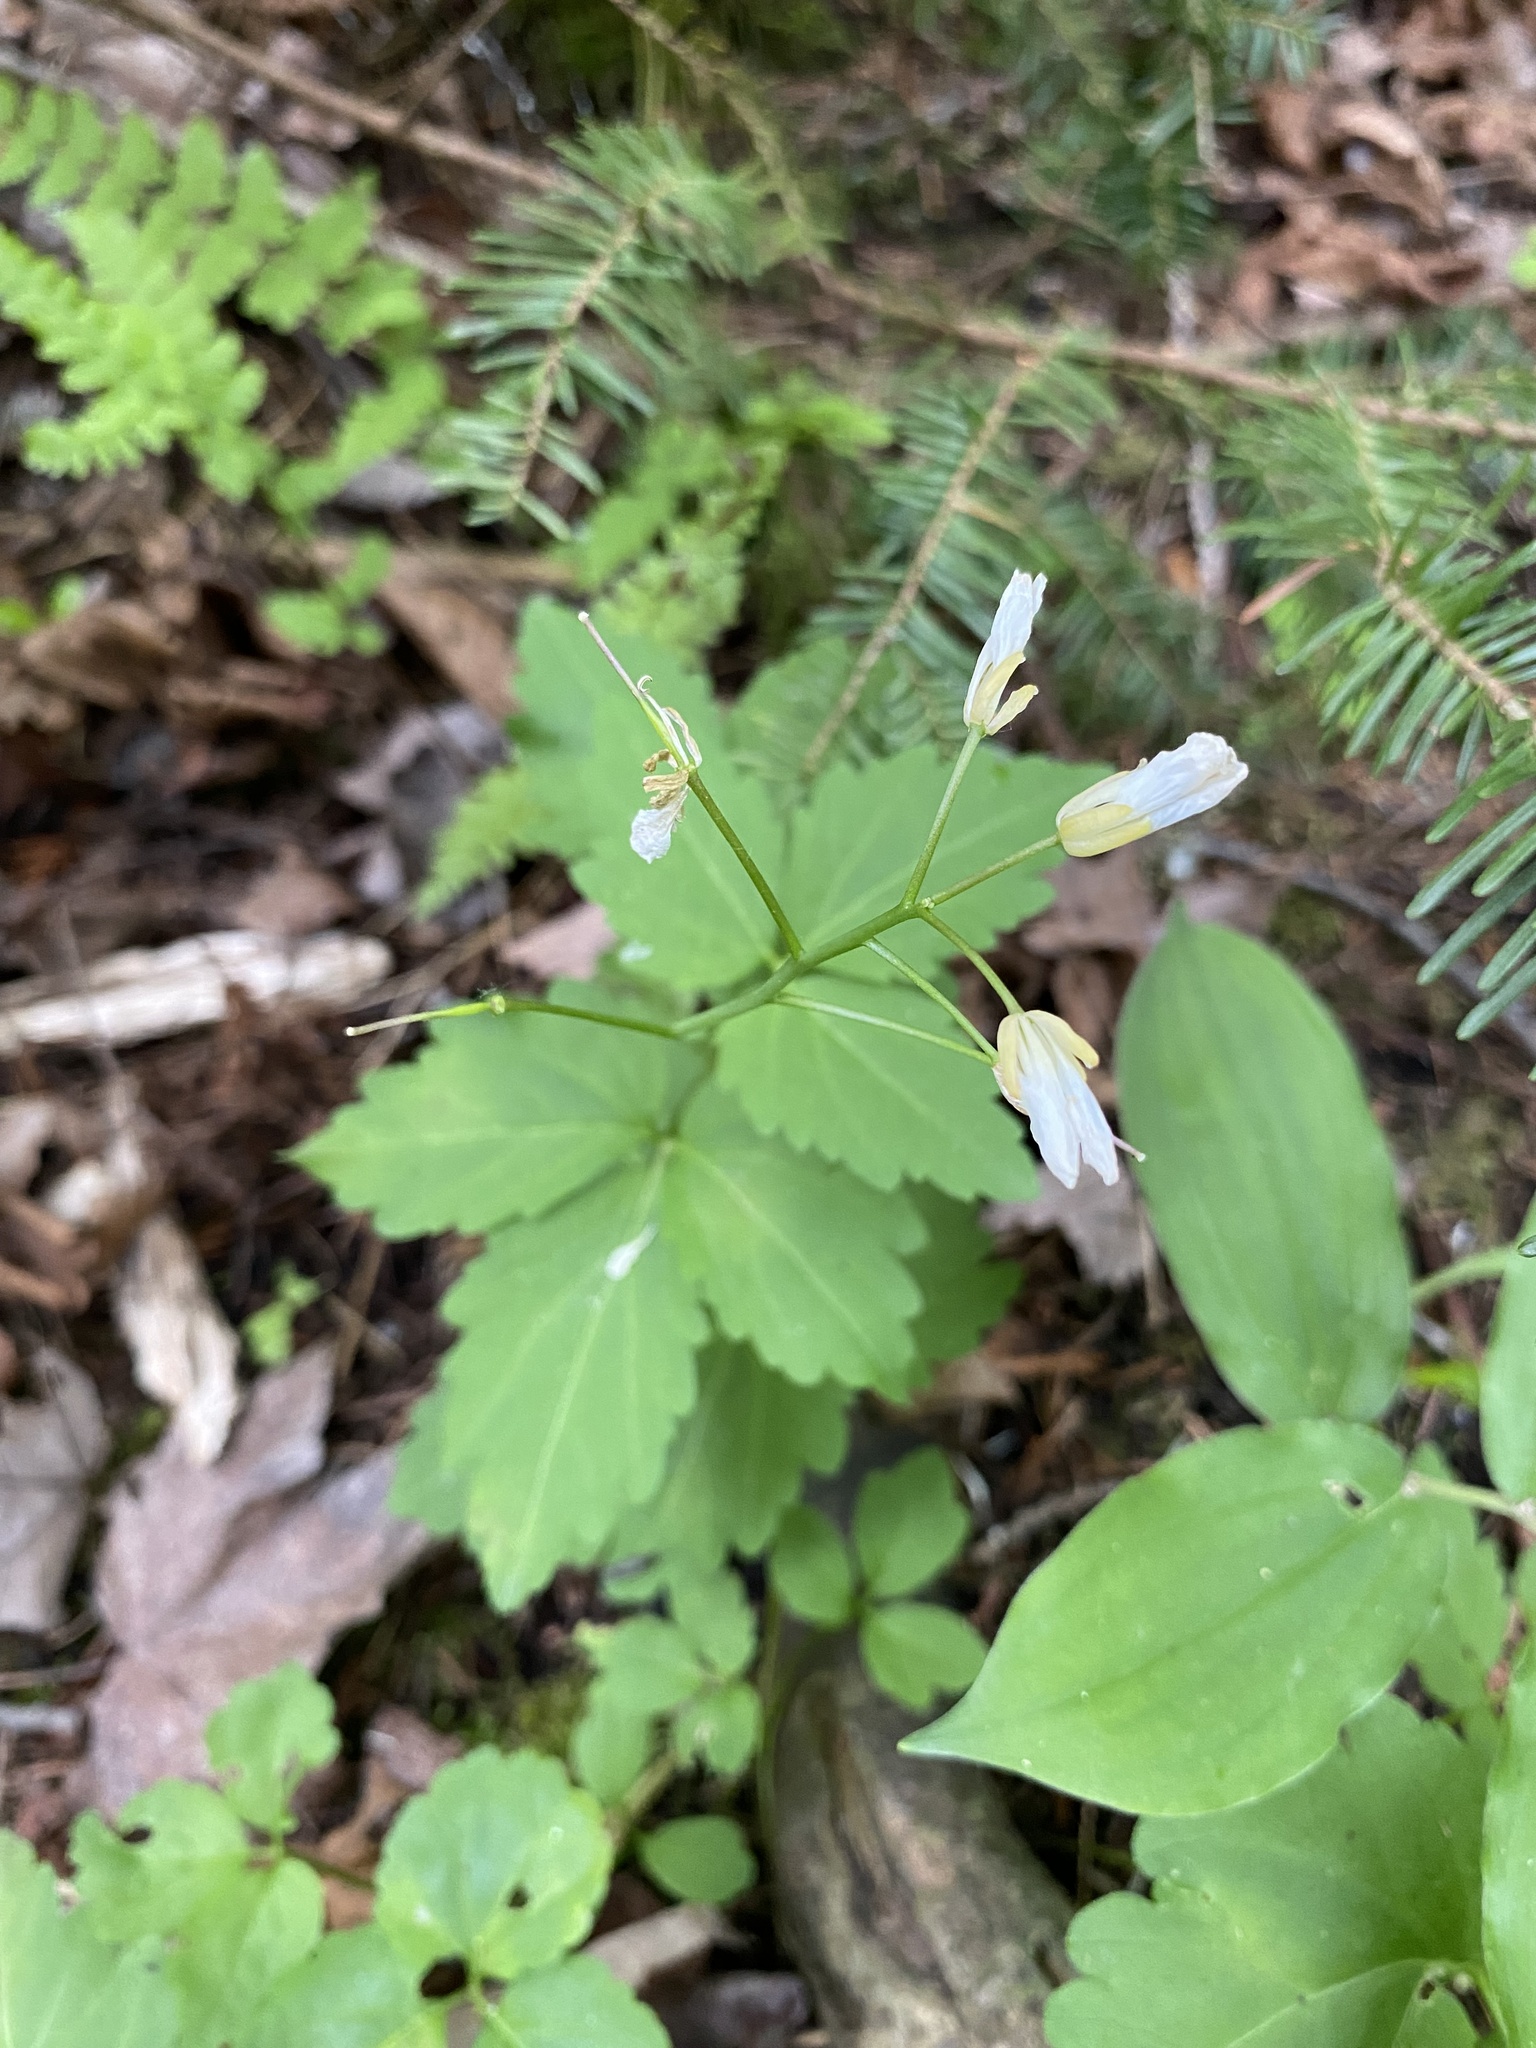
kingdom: Plantae
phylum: Tracheophyta
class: Magnoliopsida
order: Brassicales
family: Brassicaceae
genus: Cardamine
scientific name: Cardamine diphylla
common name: Broad-leaved toothwort
